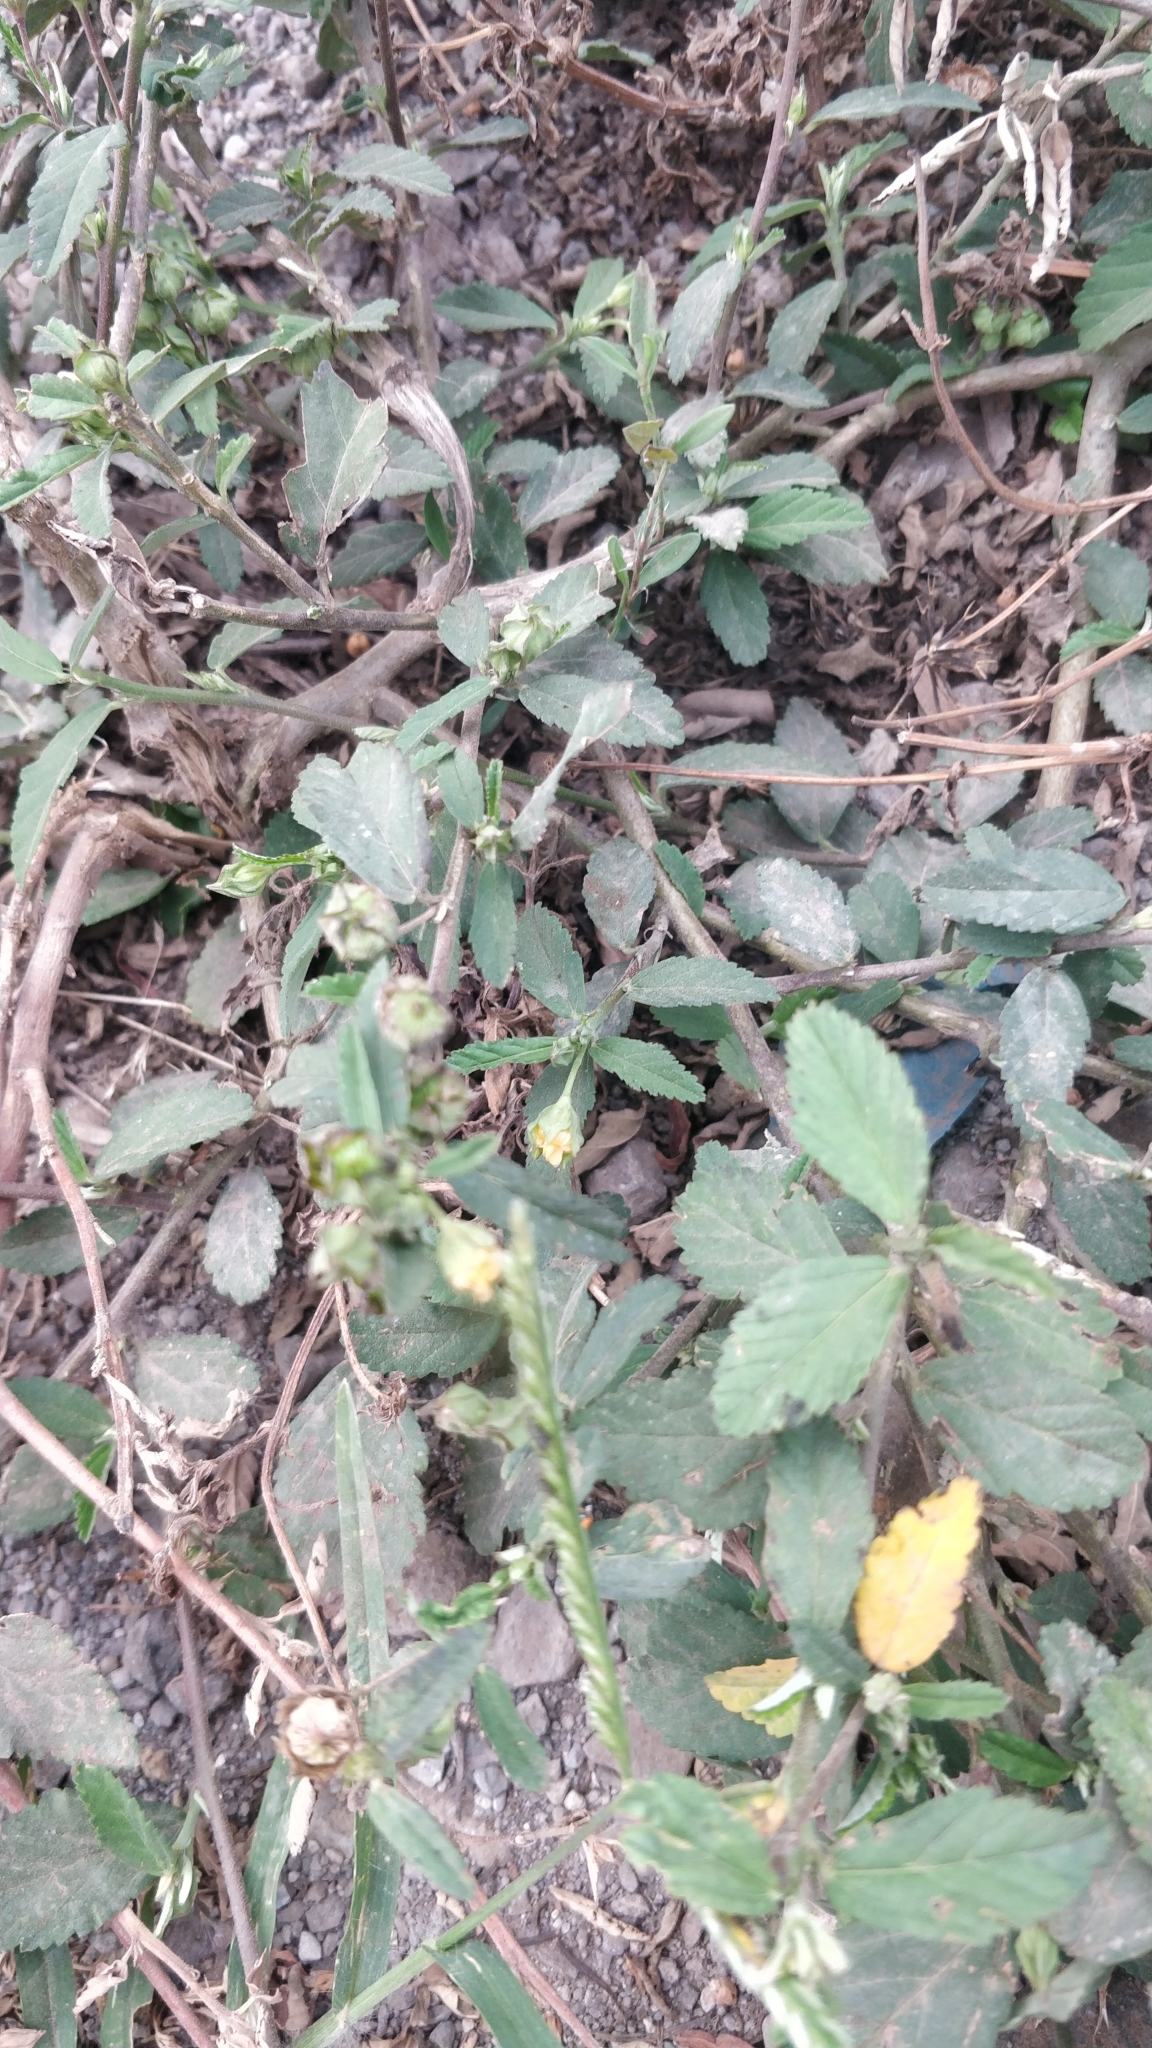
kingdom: Plantae
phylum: Tracheophyta
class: Magnoliopsida
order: Malvales
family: Malvaceae
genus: Sida
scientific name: Sida rhombifolia
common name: Queensland-hemp
